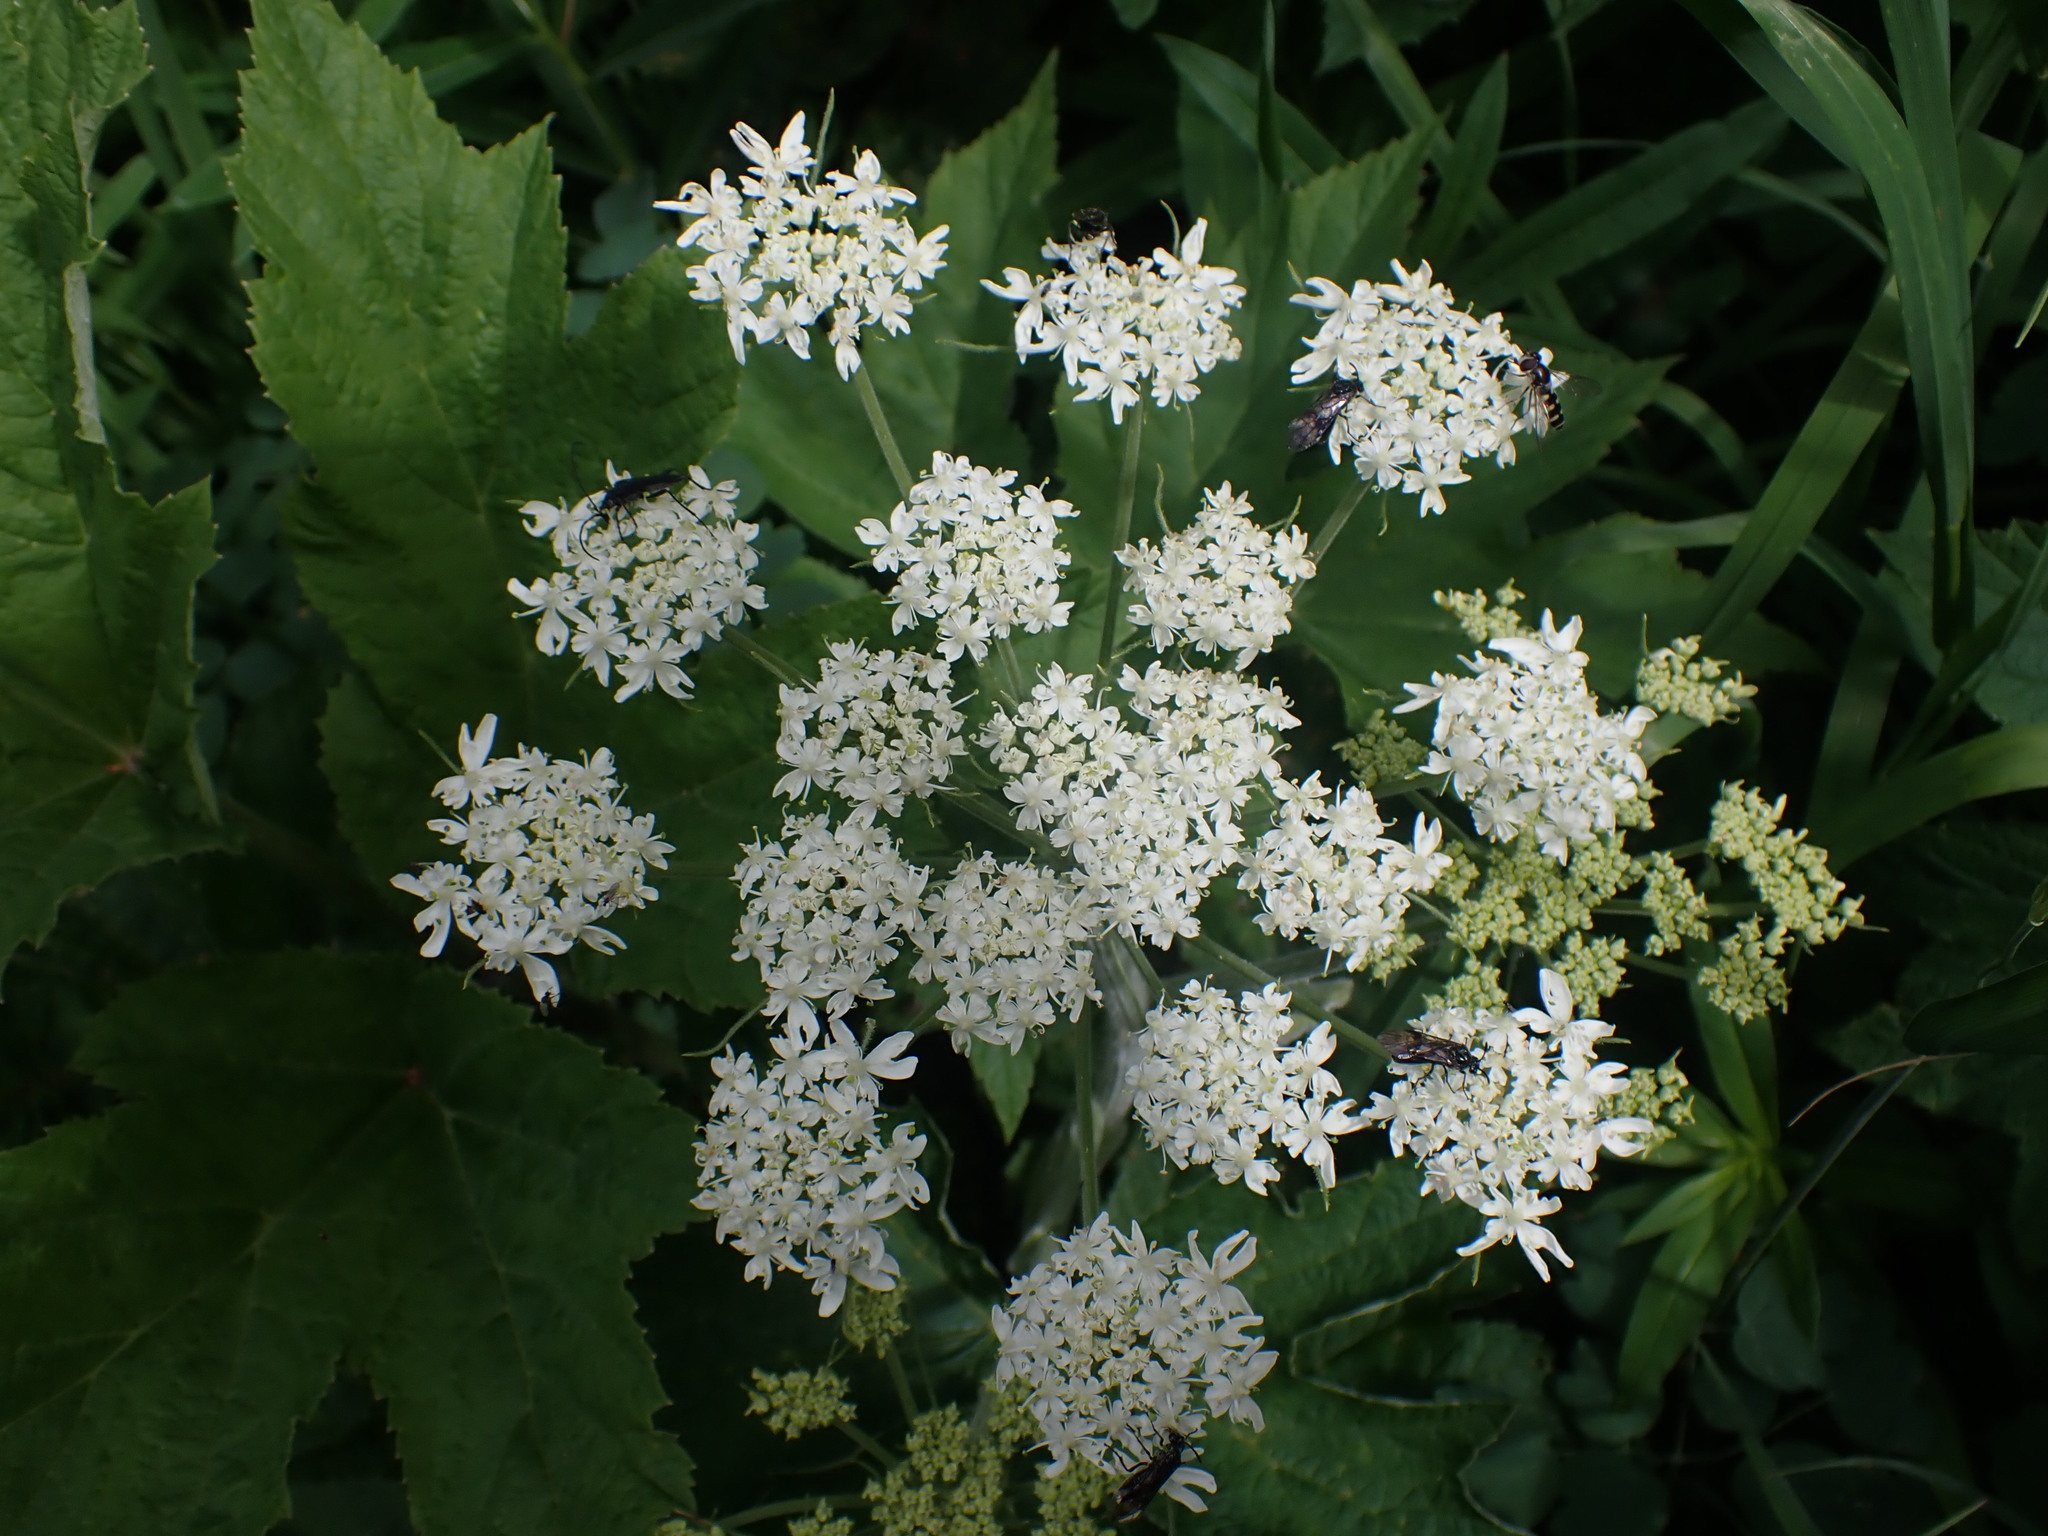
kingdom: Plantae
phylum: Tracheophyta
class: Magnoliopsida
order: Apiales
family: Apiaceae
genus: Heracleum
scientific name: Heracleum maximum
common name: American cow parsnip
